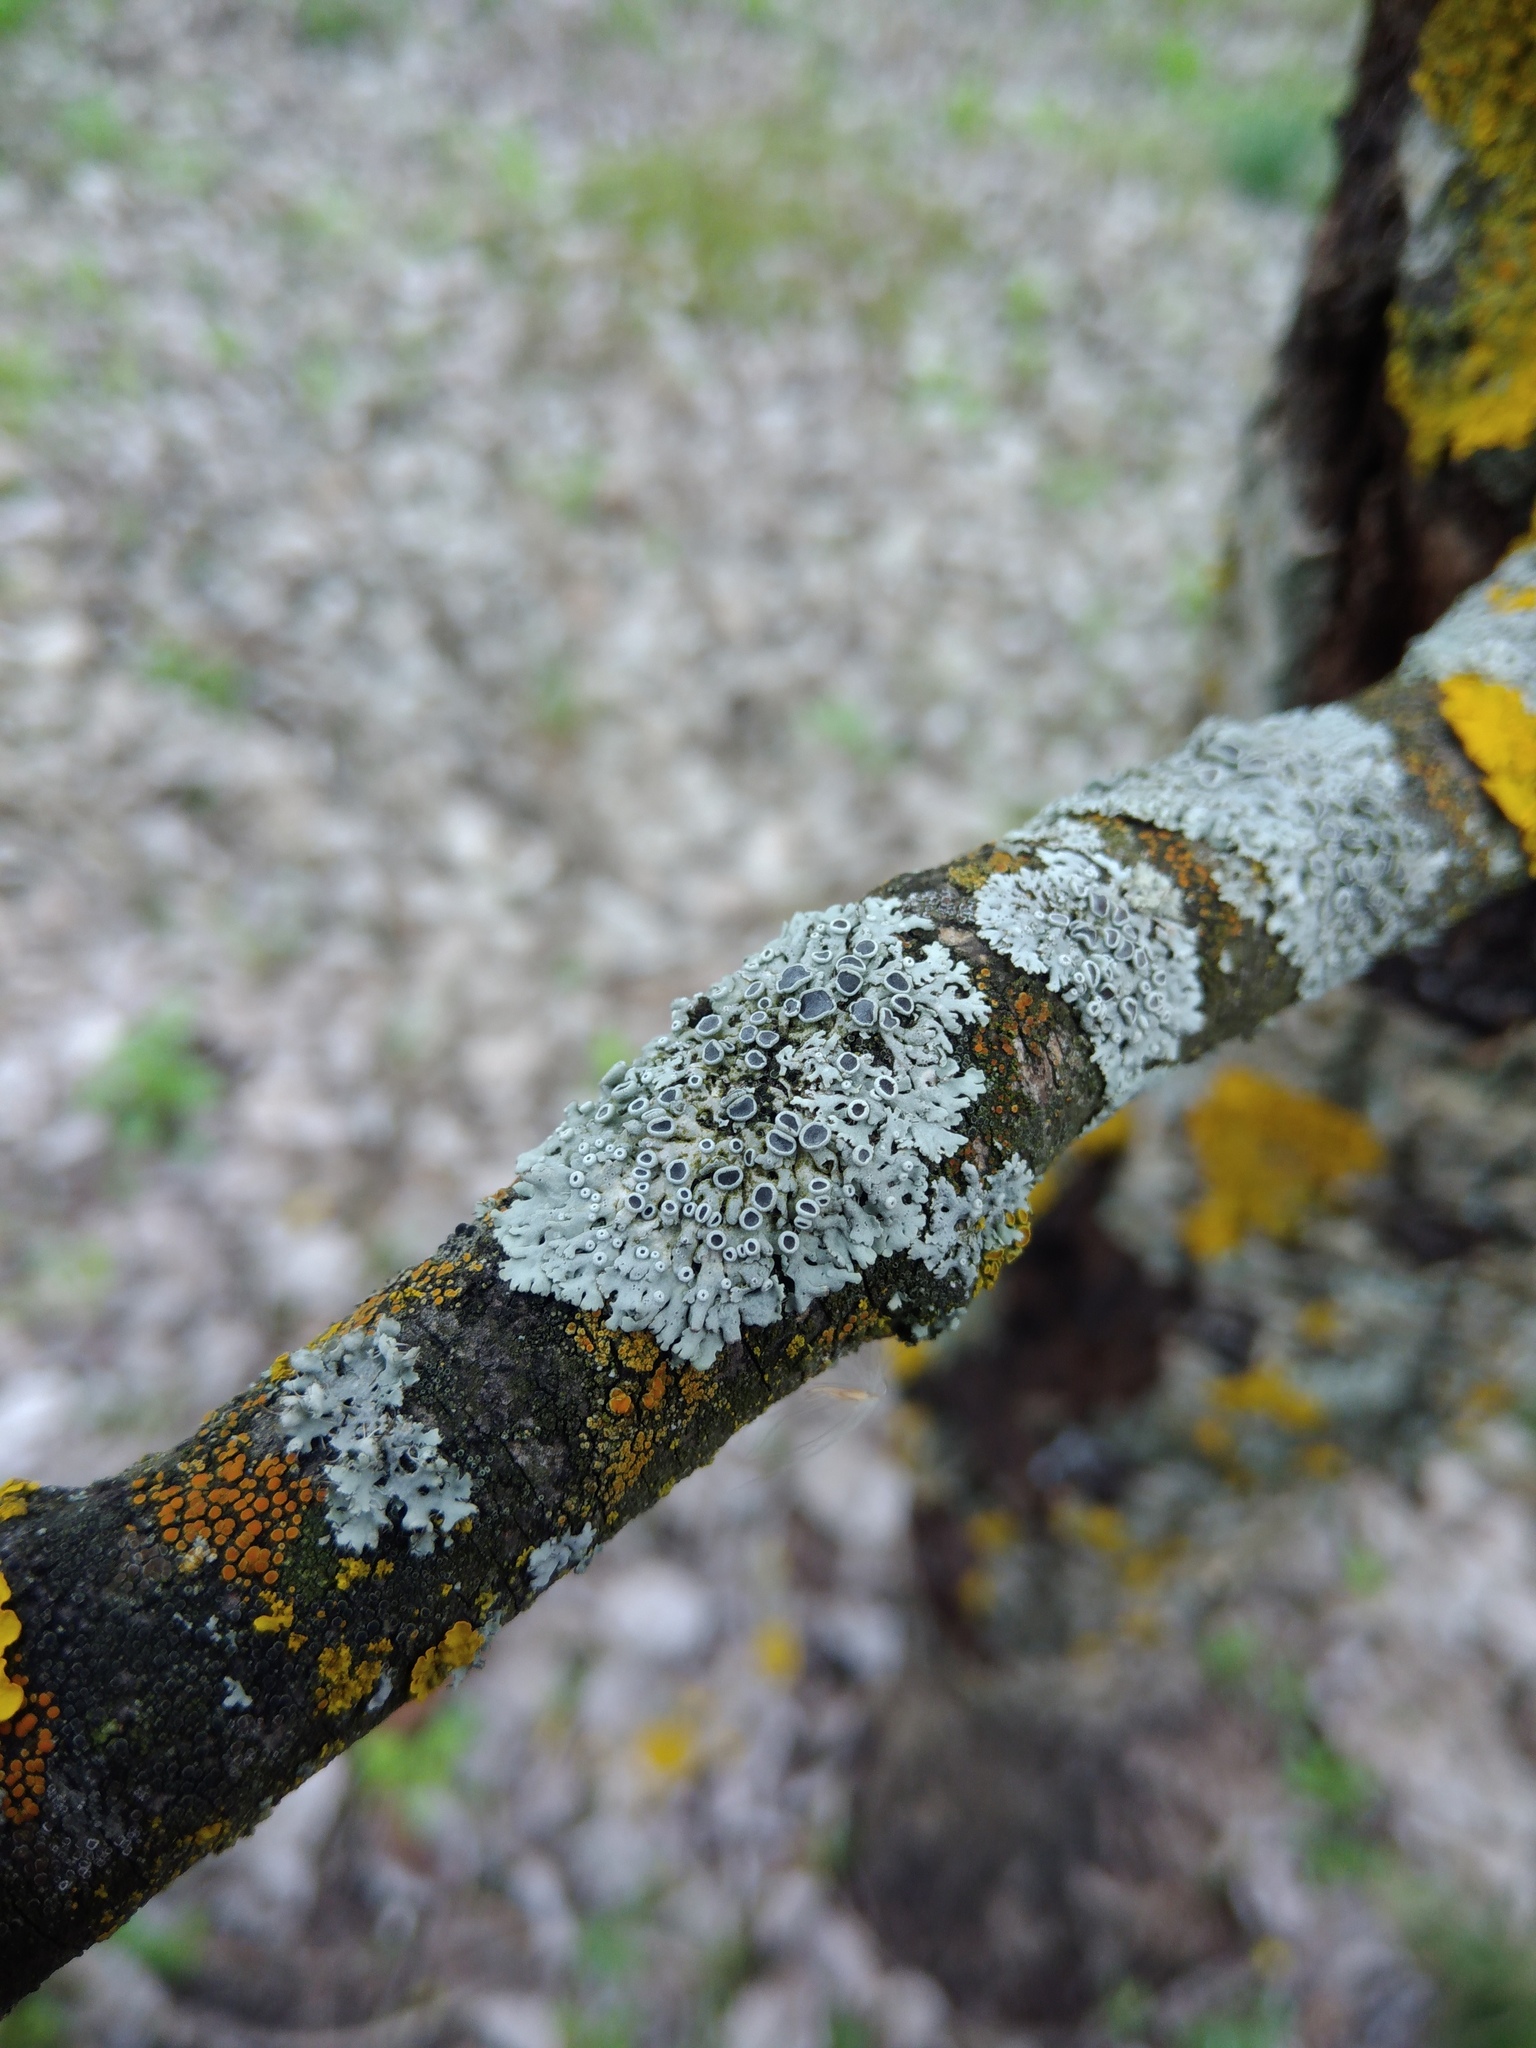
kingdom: Fungi
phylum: Ascomycota
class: Lecanoromycetes
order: Caliciales
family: Physciaceae
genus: Physcia
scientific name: Physcia stellaris
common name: Star rosette lichen
